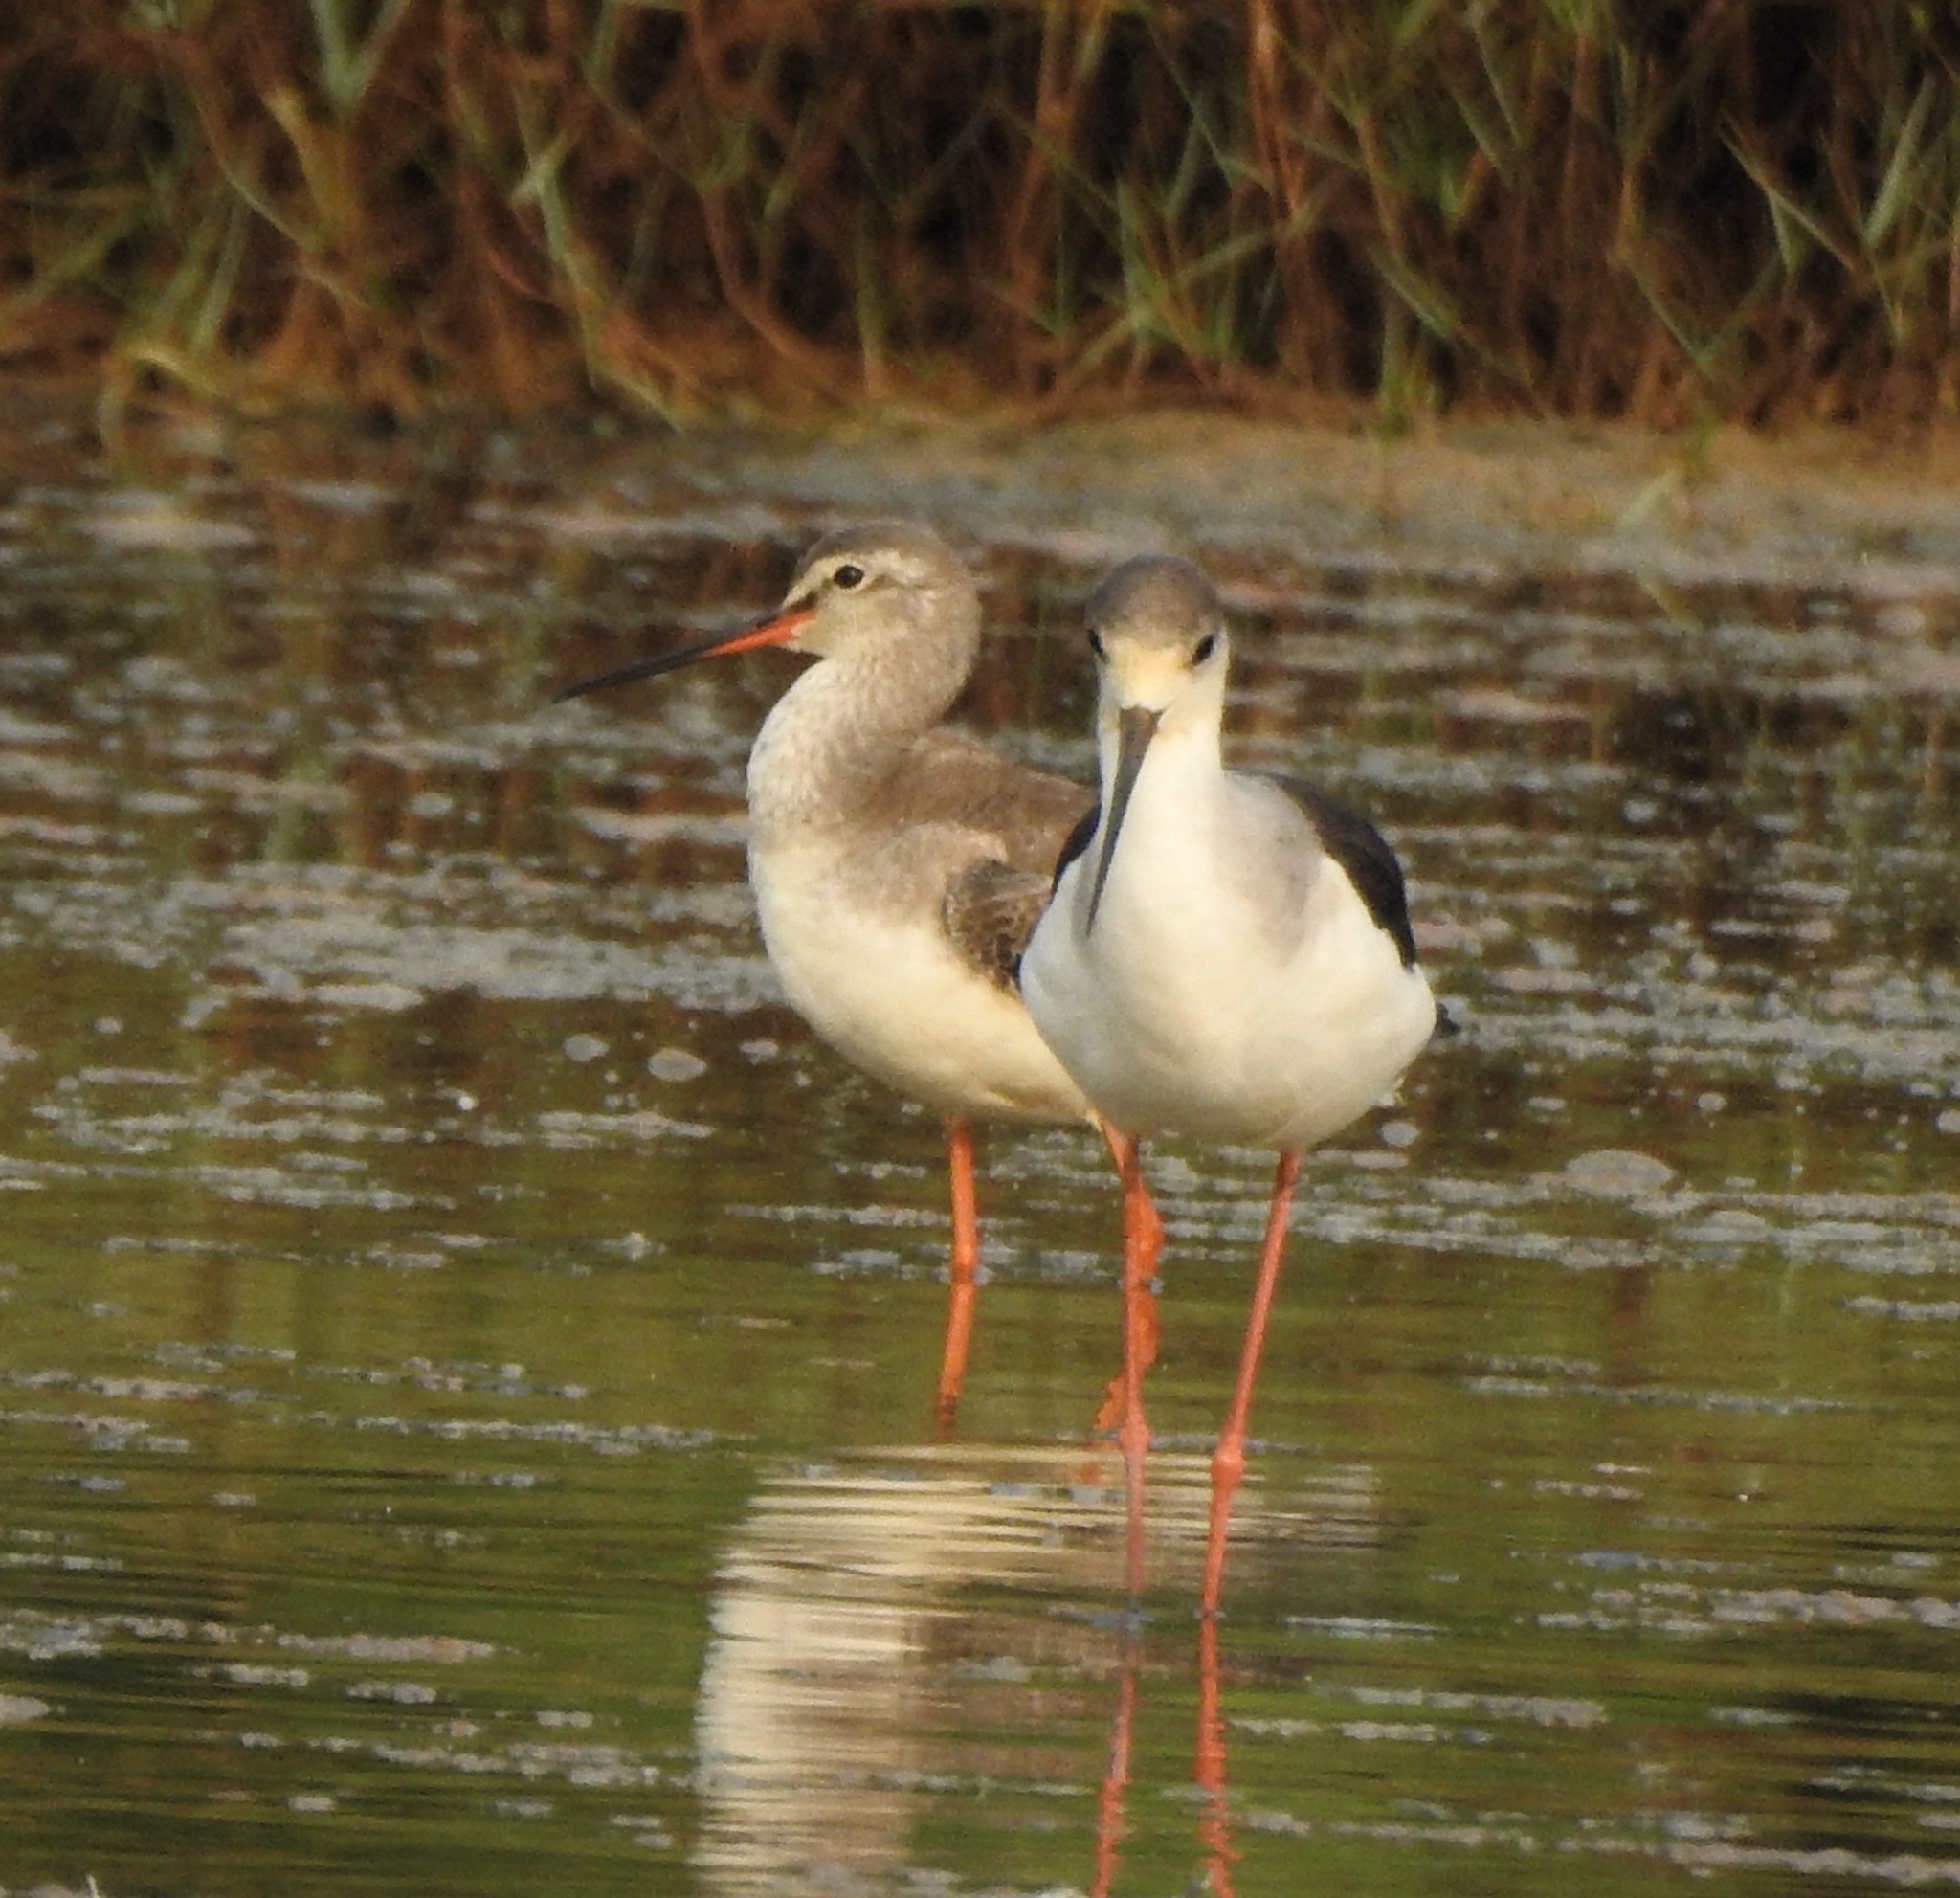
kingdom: Animalia
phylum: Chordata
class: Aves
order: Charadriiformes
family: Recurvirostridae
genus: Himantopus
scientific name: Himantopus himantopus
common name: Black-winged stilt
